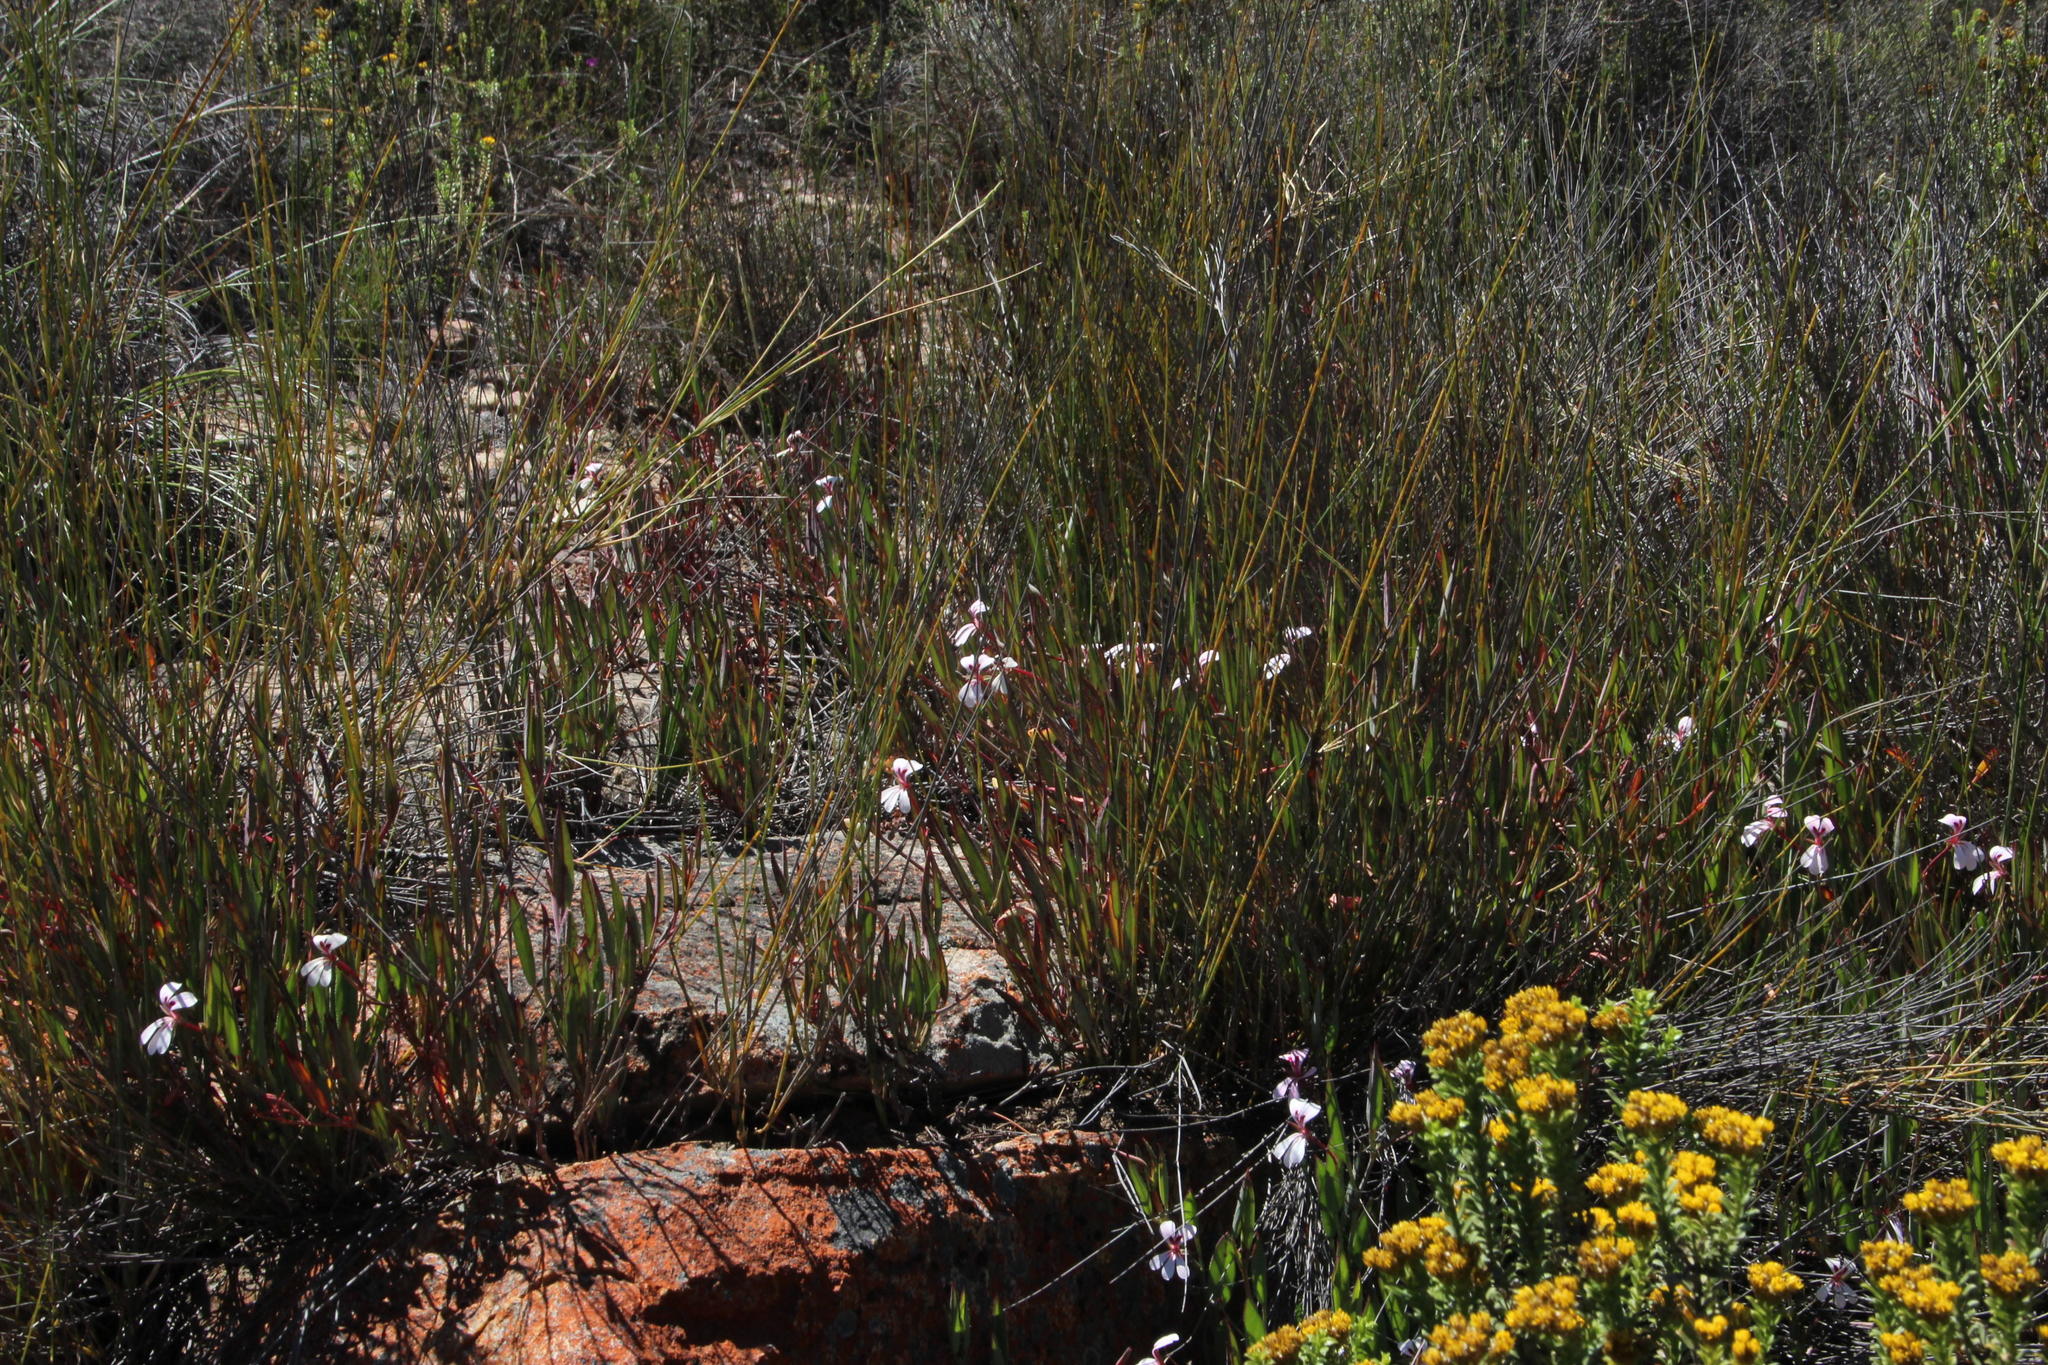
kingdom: Plantae
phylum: Tracheophyta
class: Magnoliopsida
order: Geraniales
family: Geraniaceae
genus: Pelargonium
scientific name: Pelargonium lanceolatum
